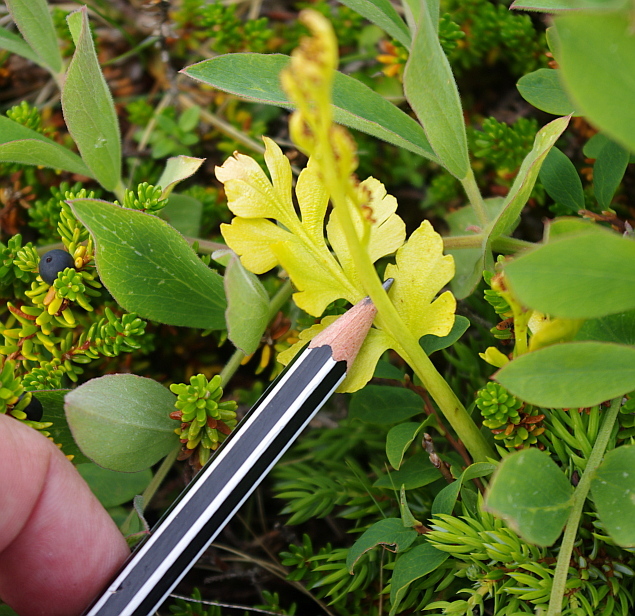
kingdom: Plantae
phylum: Tracheophyta
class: Polypodiopsida
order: Ophioglossales
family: Ophioglossaceae
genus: Botrychium
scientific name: Botrychium boreale
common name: Boreal moonwort
